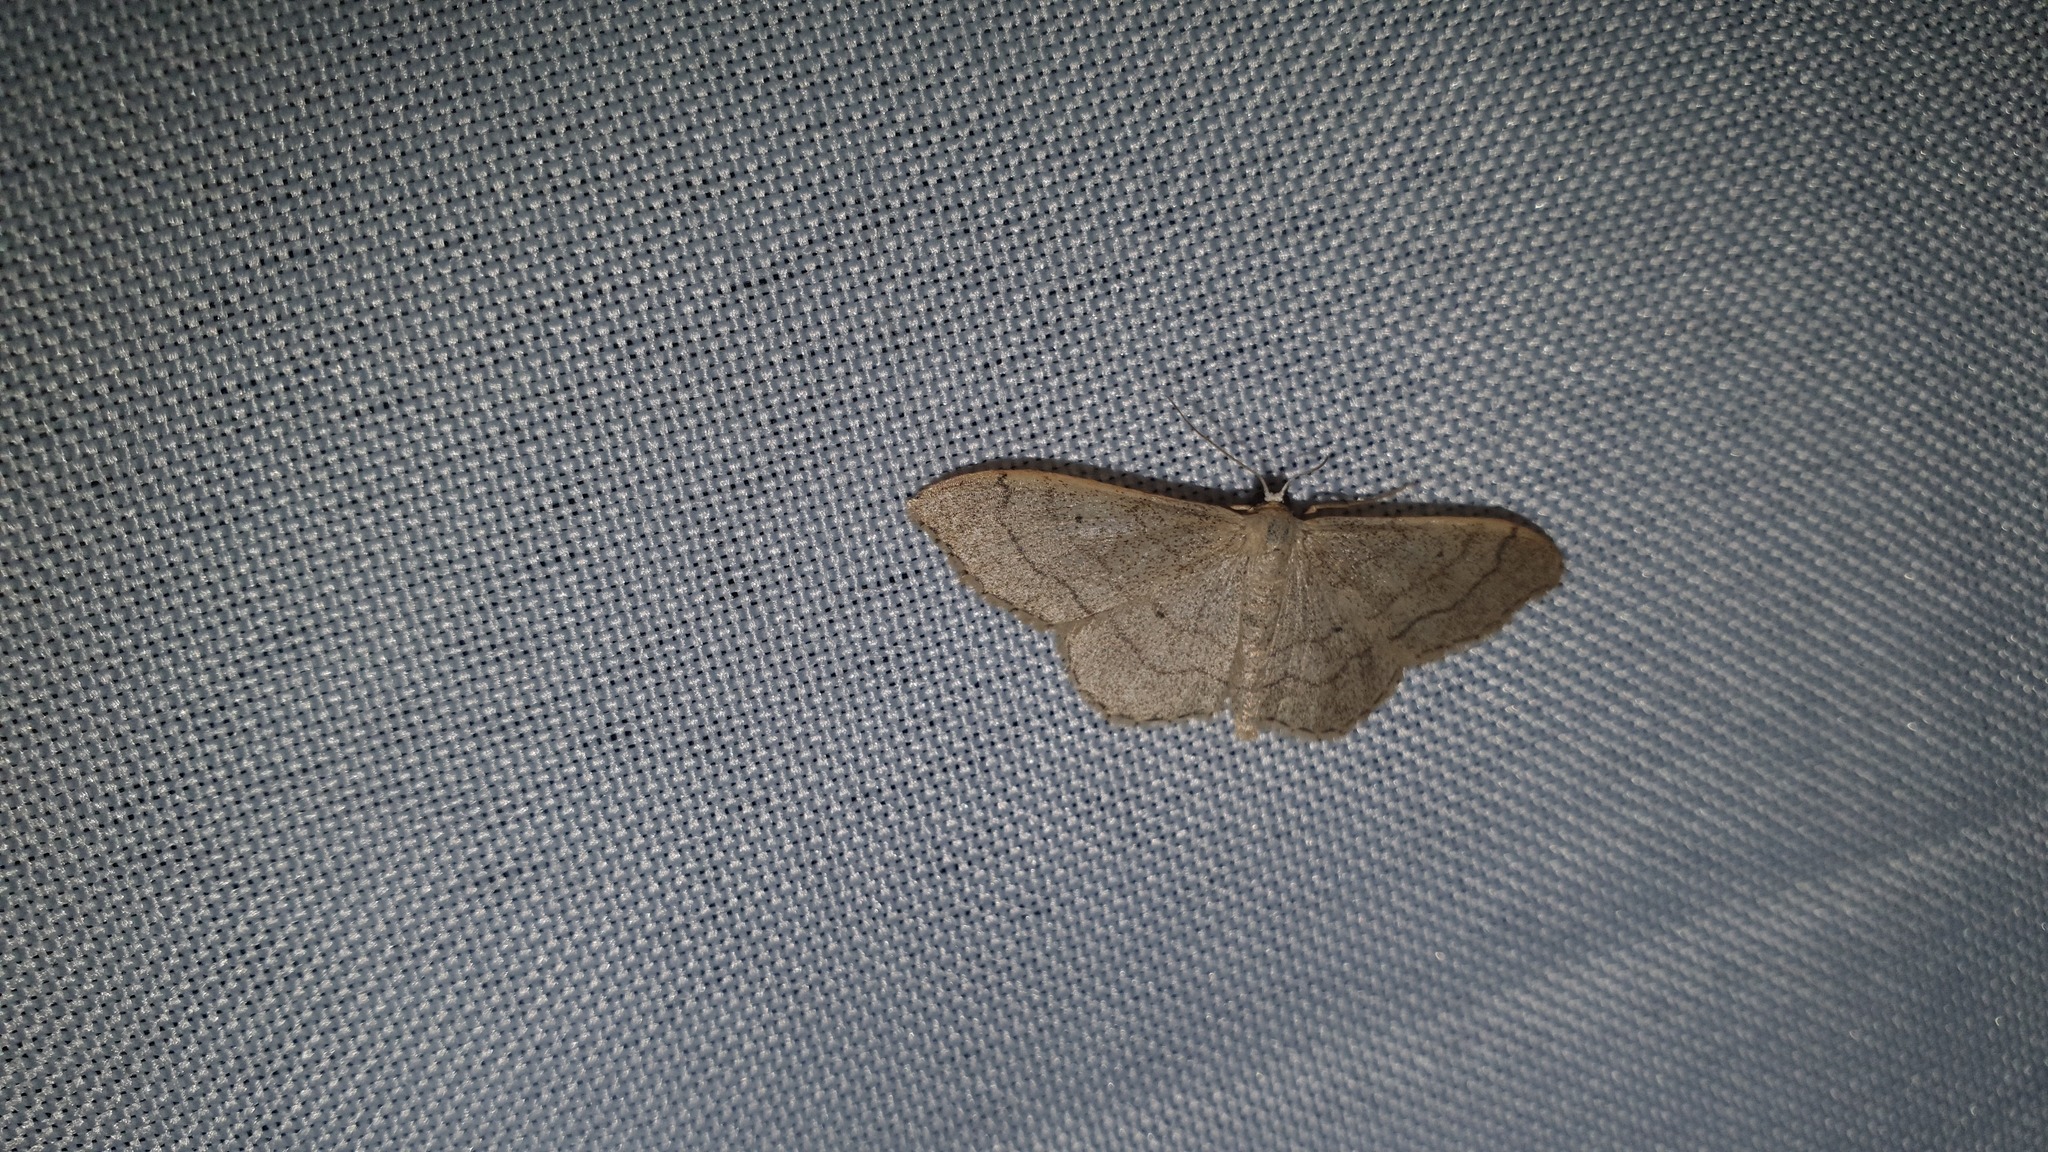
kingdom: Animalia
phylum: Arthropoda
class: Insecta
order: Lepidoptera
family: Geometridae
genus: Idaea
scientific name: Idaea aversata
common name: Riband wave
